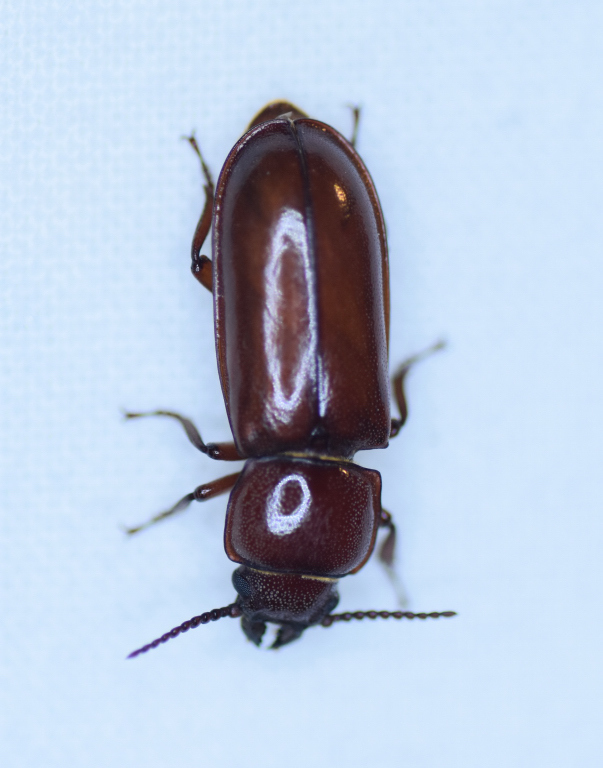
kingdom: Animalia
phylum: Arthropoda
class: Insecta
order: Coleoptera
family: Cerambycidae
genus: Neandra
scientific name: Neandra brunnea
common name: Pole borer
